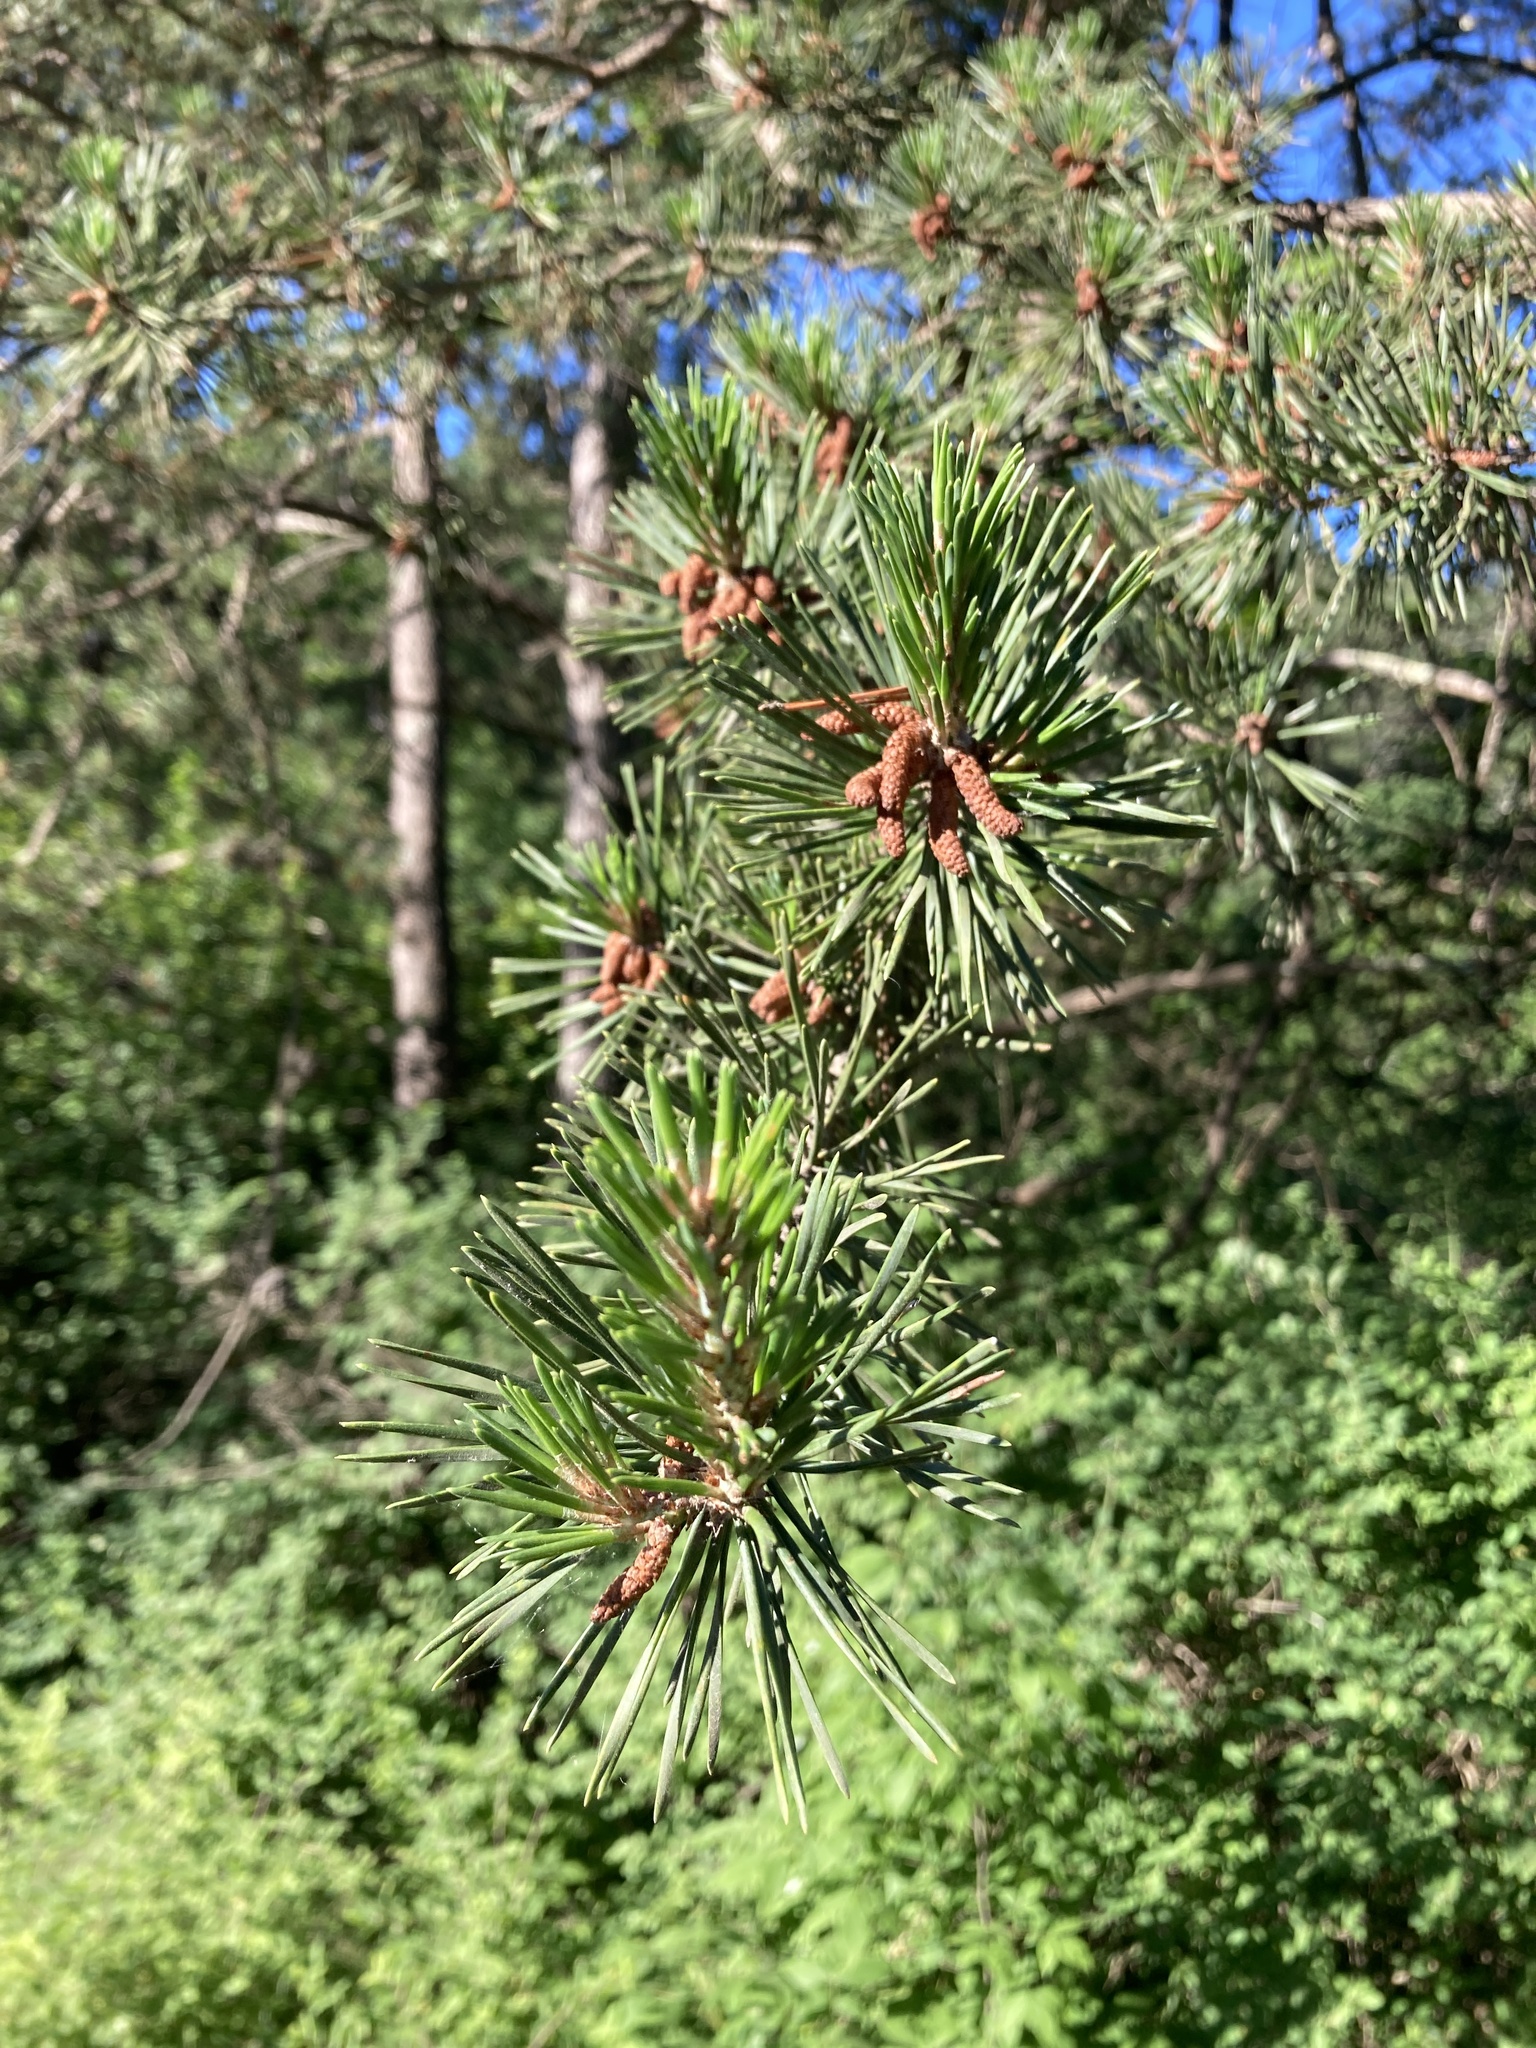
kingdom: Plantae
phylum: Tracheophyta
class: Pinopsida
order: Pinales
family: Pinaceae
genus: Pinus
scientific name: Pinus virginiana
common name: Scrub pine
